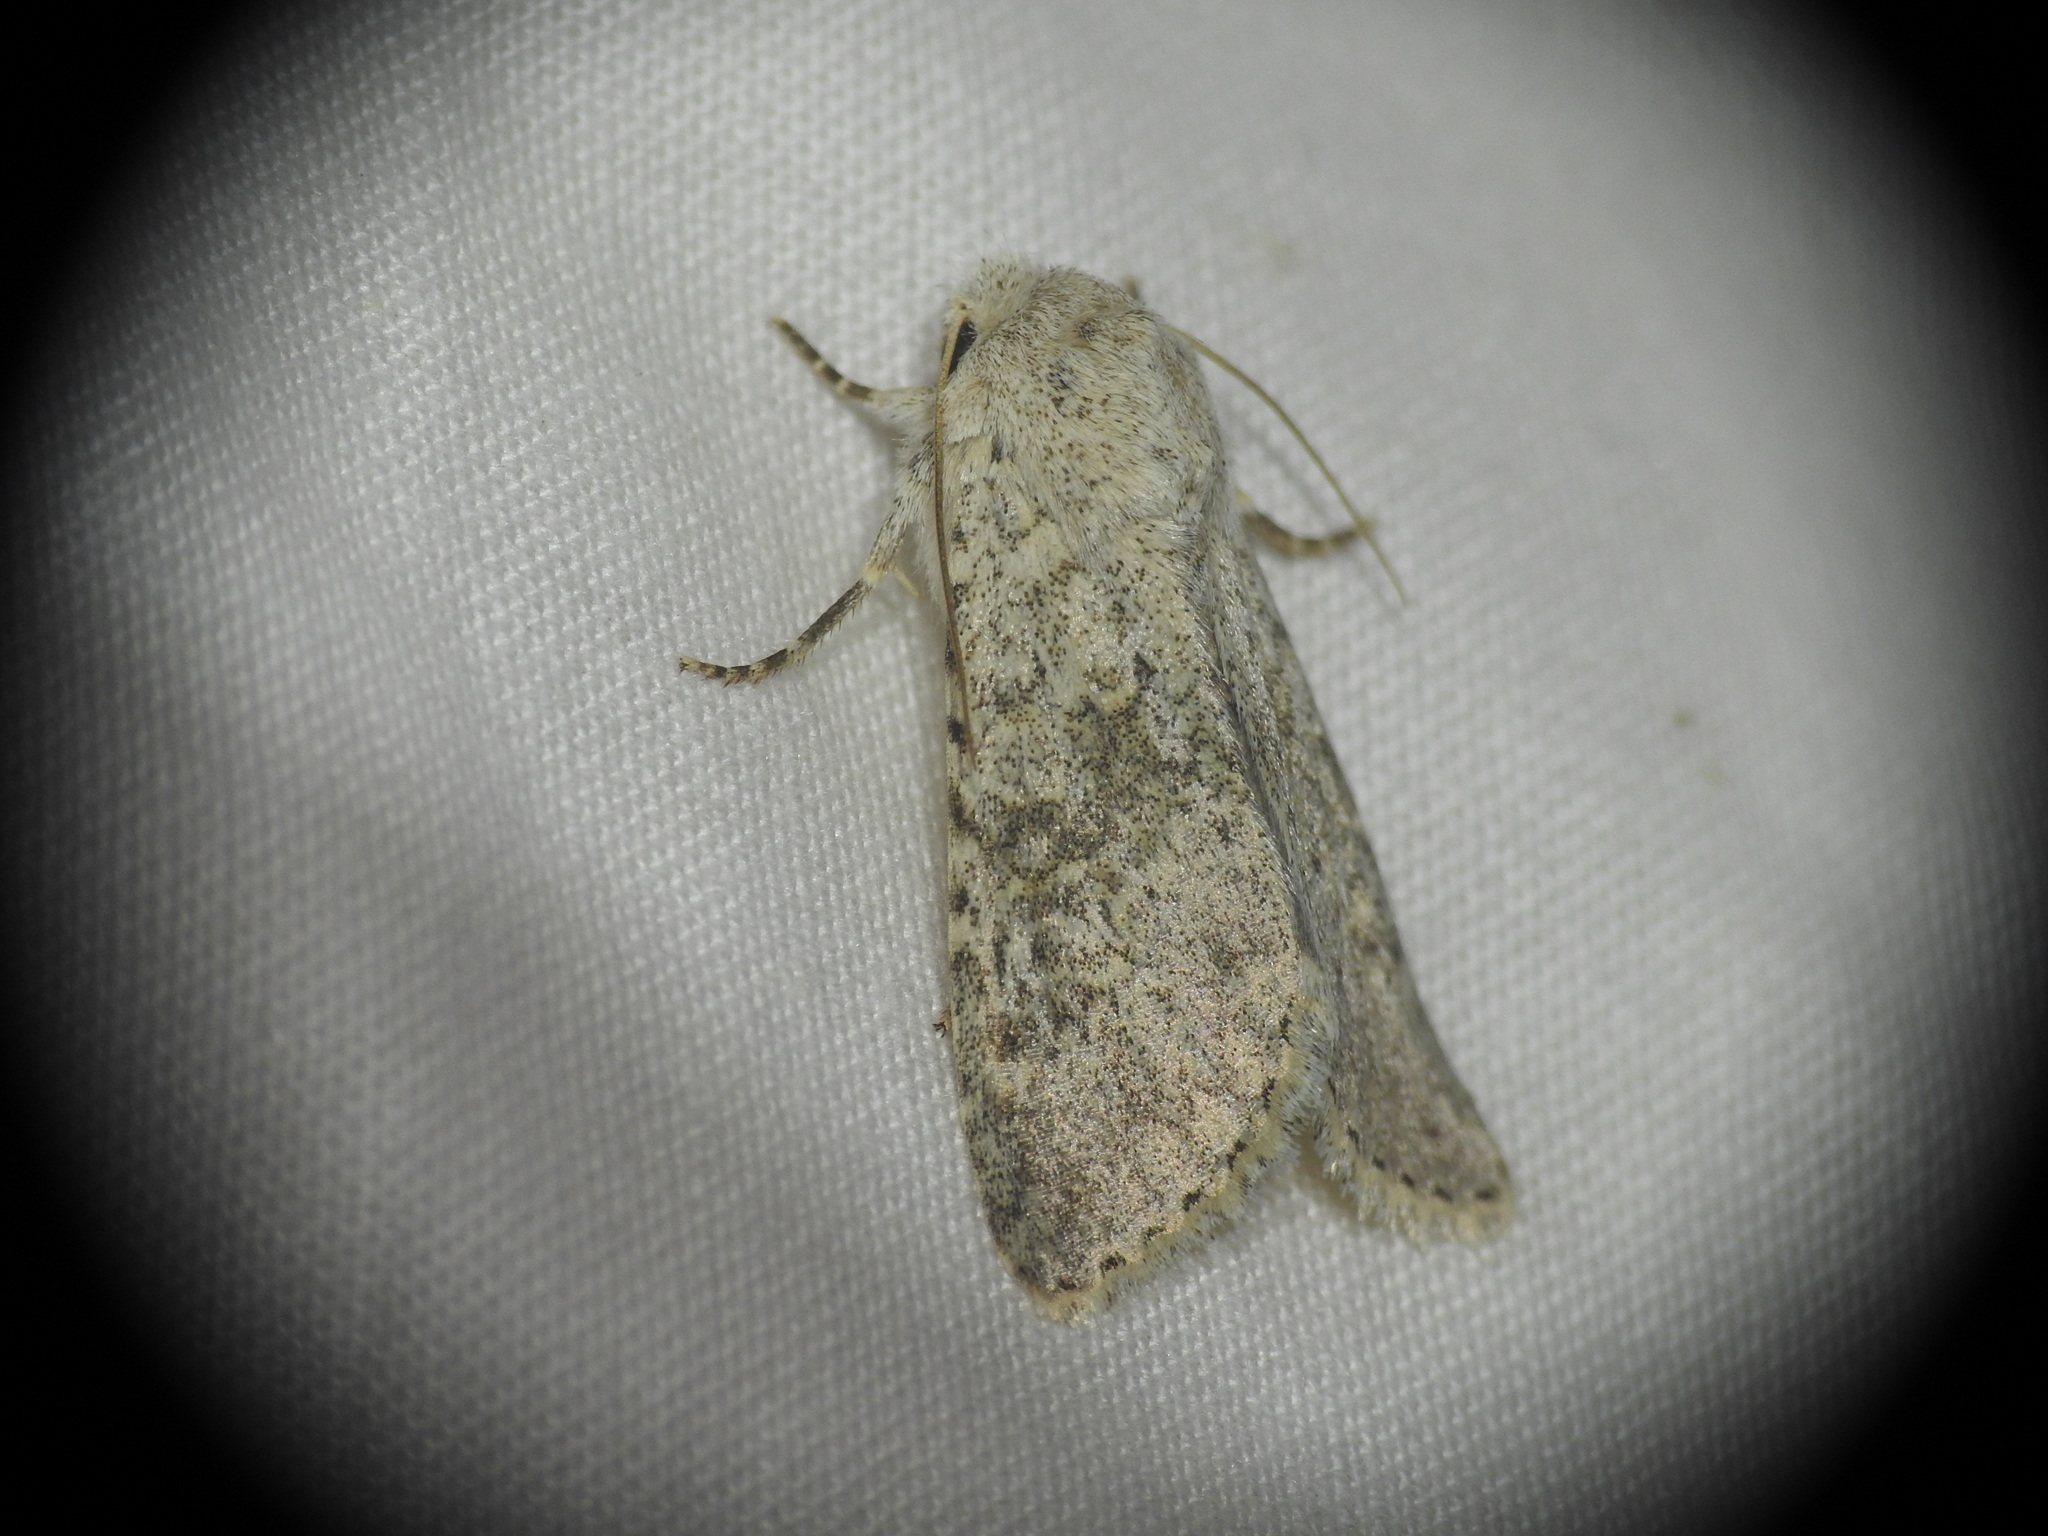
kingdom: Animalia
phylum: Arthropoda
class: Insecta
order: Lepidoptera
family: Noctuidae
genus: Aporophyla
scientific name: Aporophyla canescens
